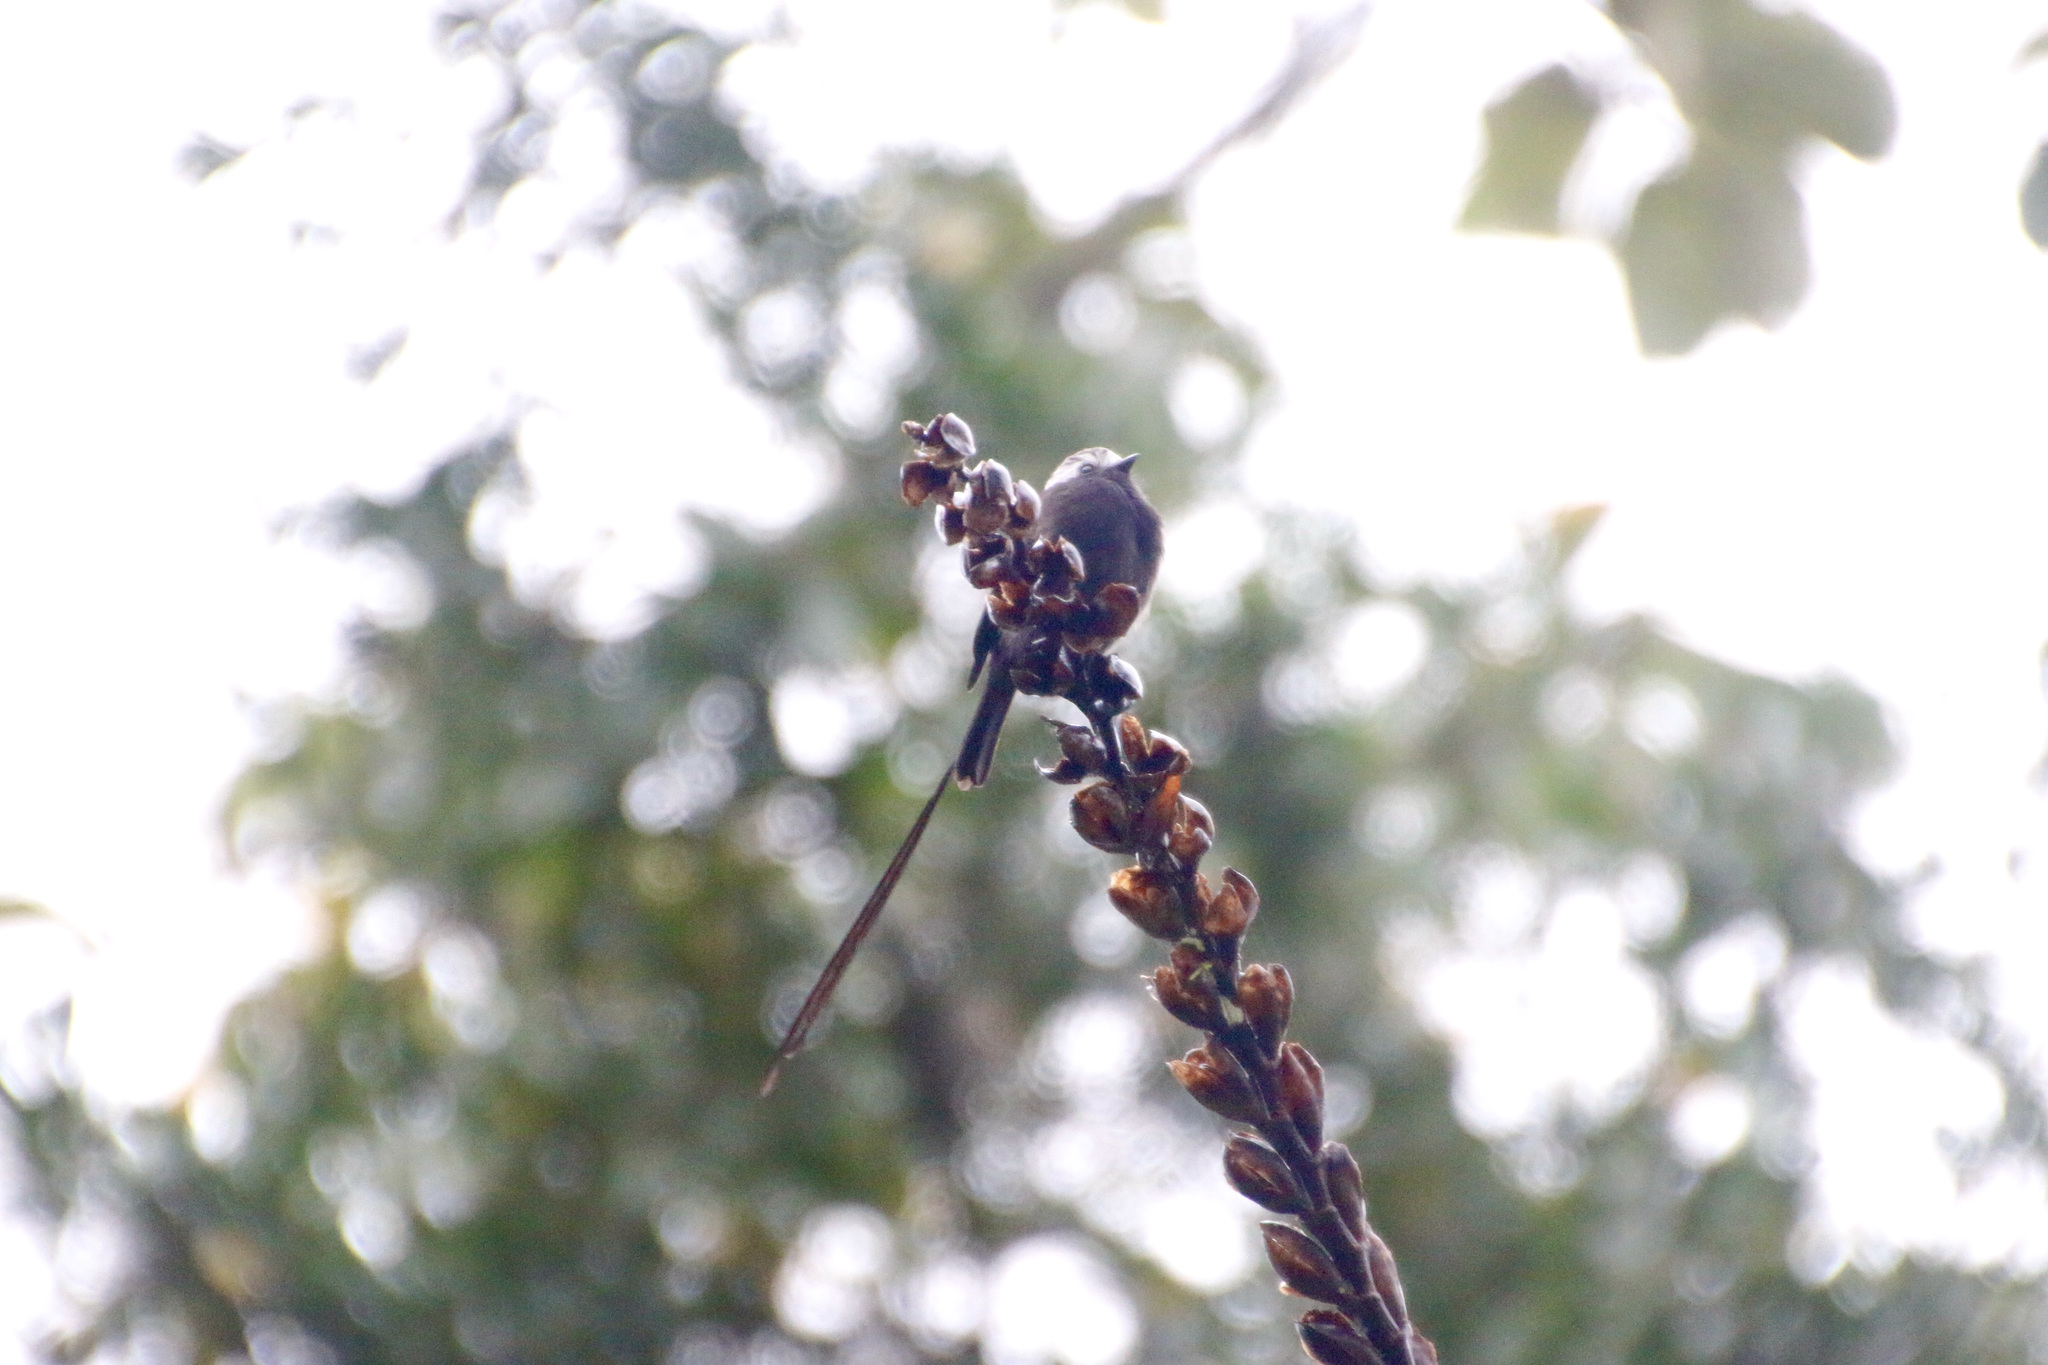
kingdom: Animalia
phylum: Chordata
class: Aves
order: Passeriformes
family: Tyrannidae
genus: Colonia
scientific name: Colonia colonus
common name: Long-tailed tyrant
